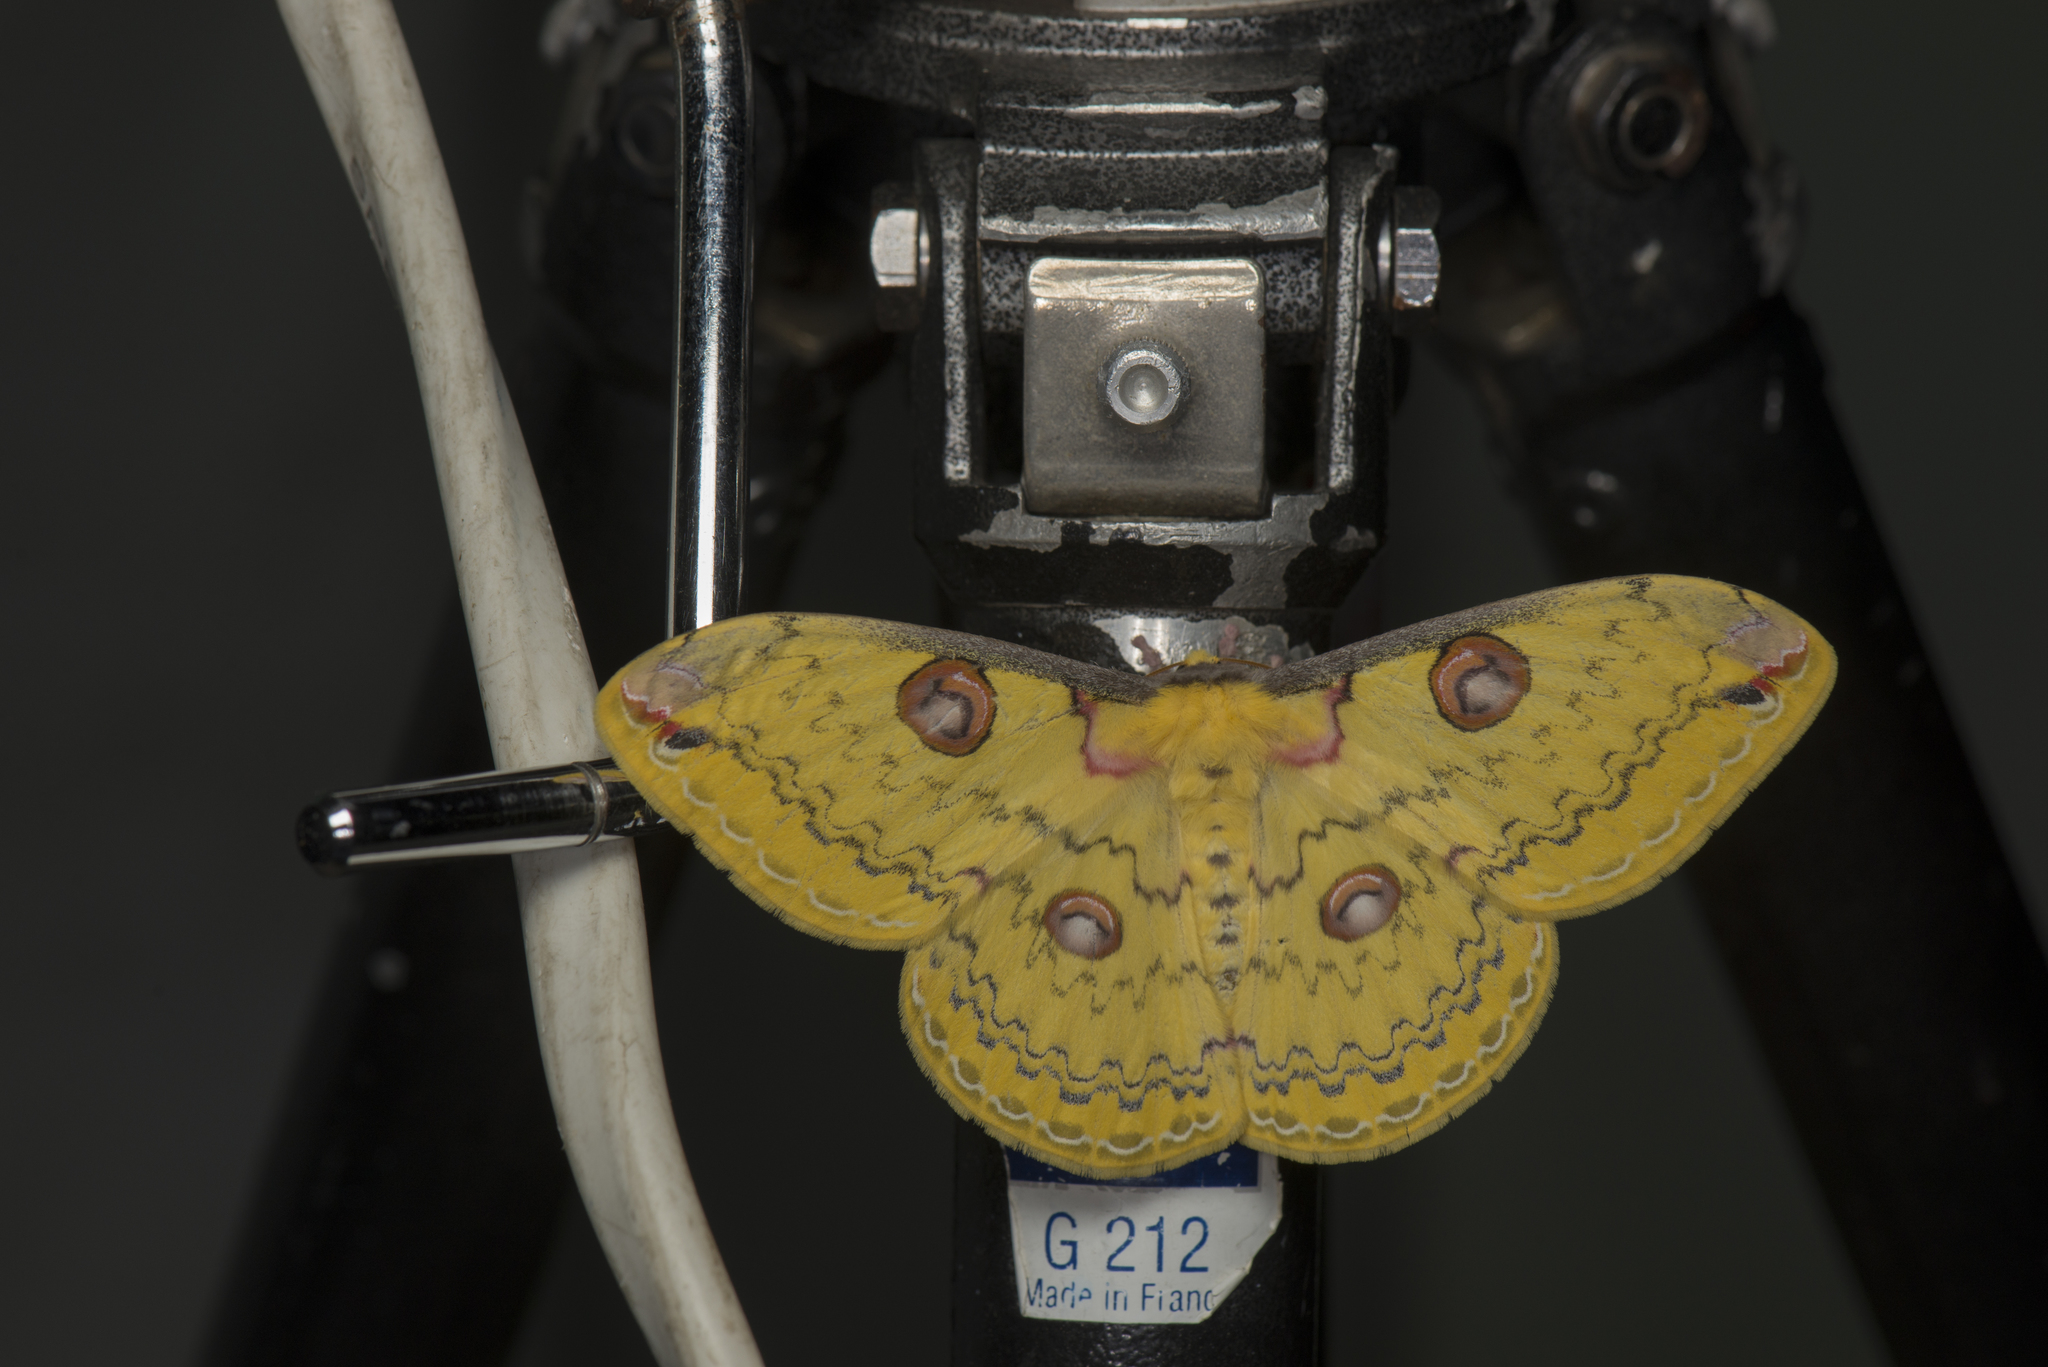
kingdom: Animalia
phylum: Arthropoda
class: Insecta
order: Lepidoptera
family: Saturniidae
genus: Loepa
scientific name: Loepa formosensis
